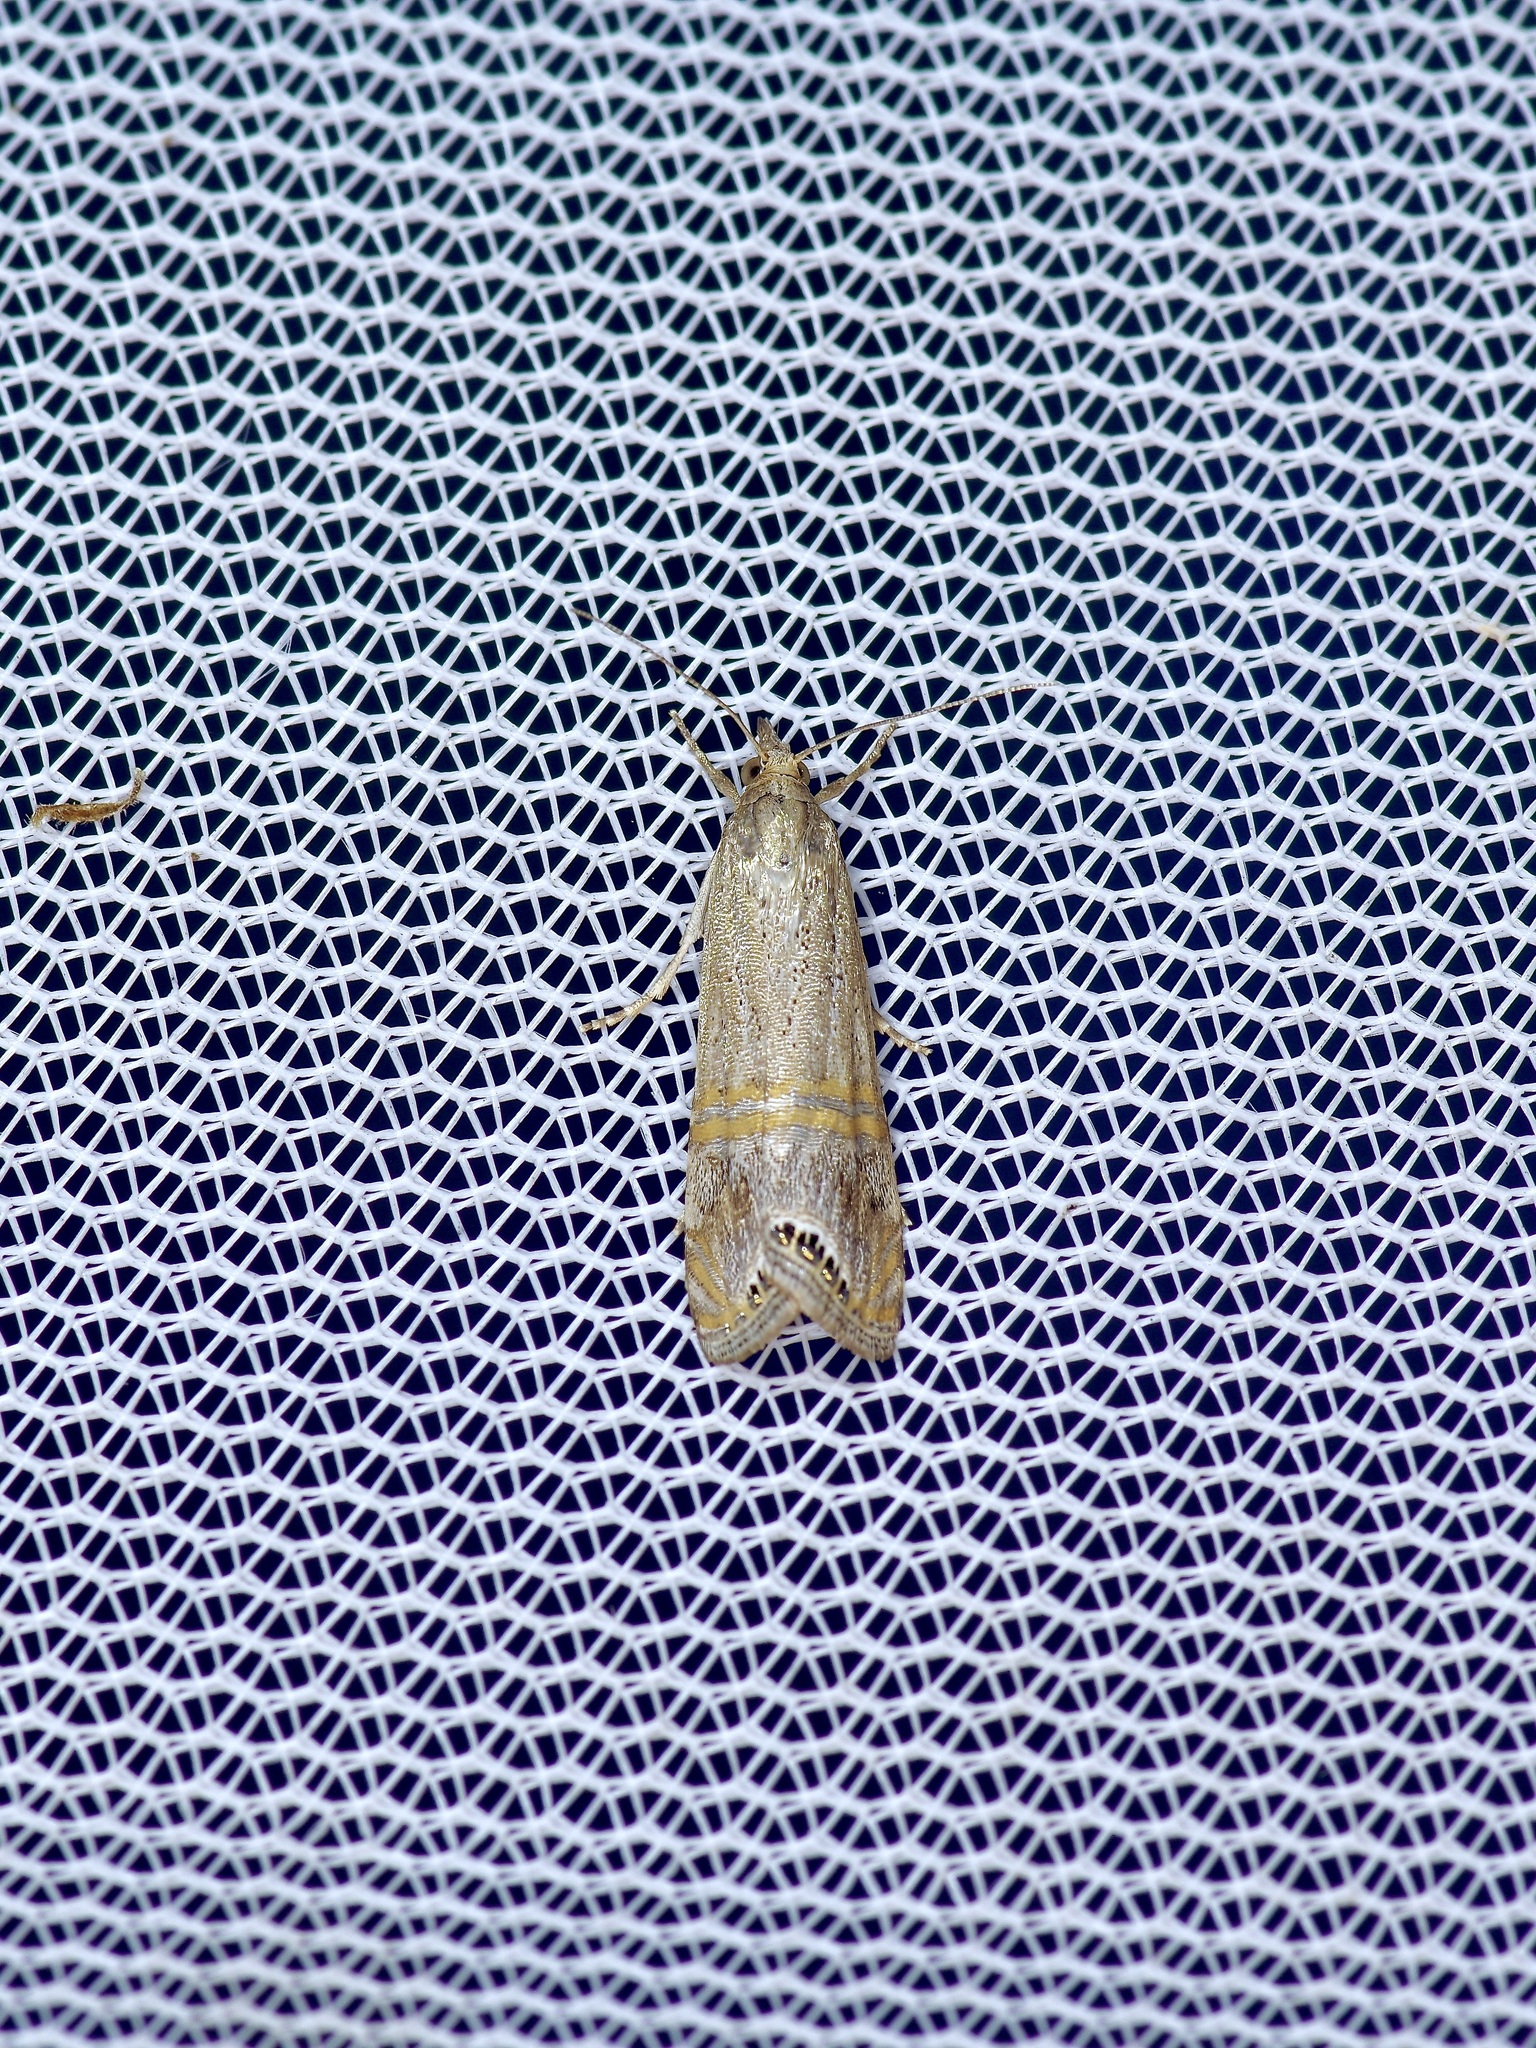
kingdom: Animalia
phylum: Arthropoda
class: Insecta
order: Lepidoptera
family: Crambidae
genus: Euchromius
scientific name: Euchromius ocellea
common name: Necklace veneer moth
